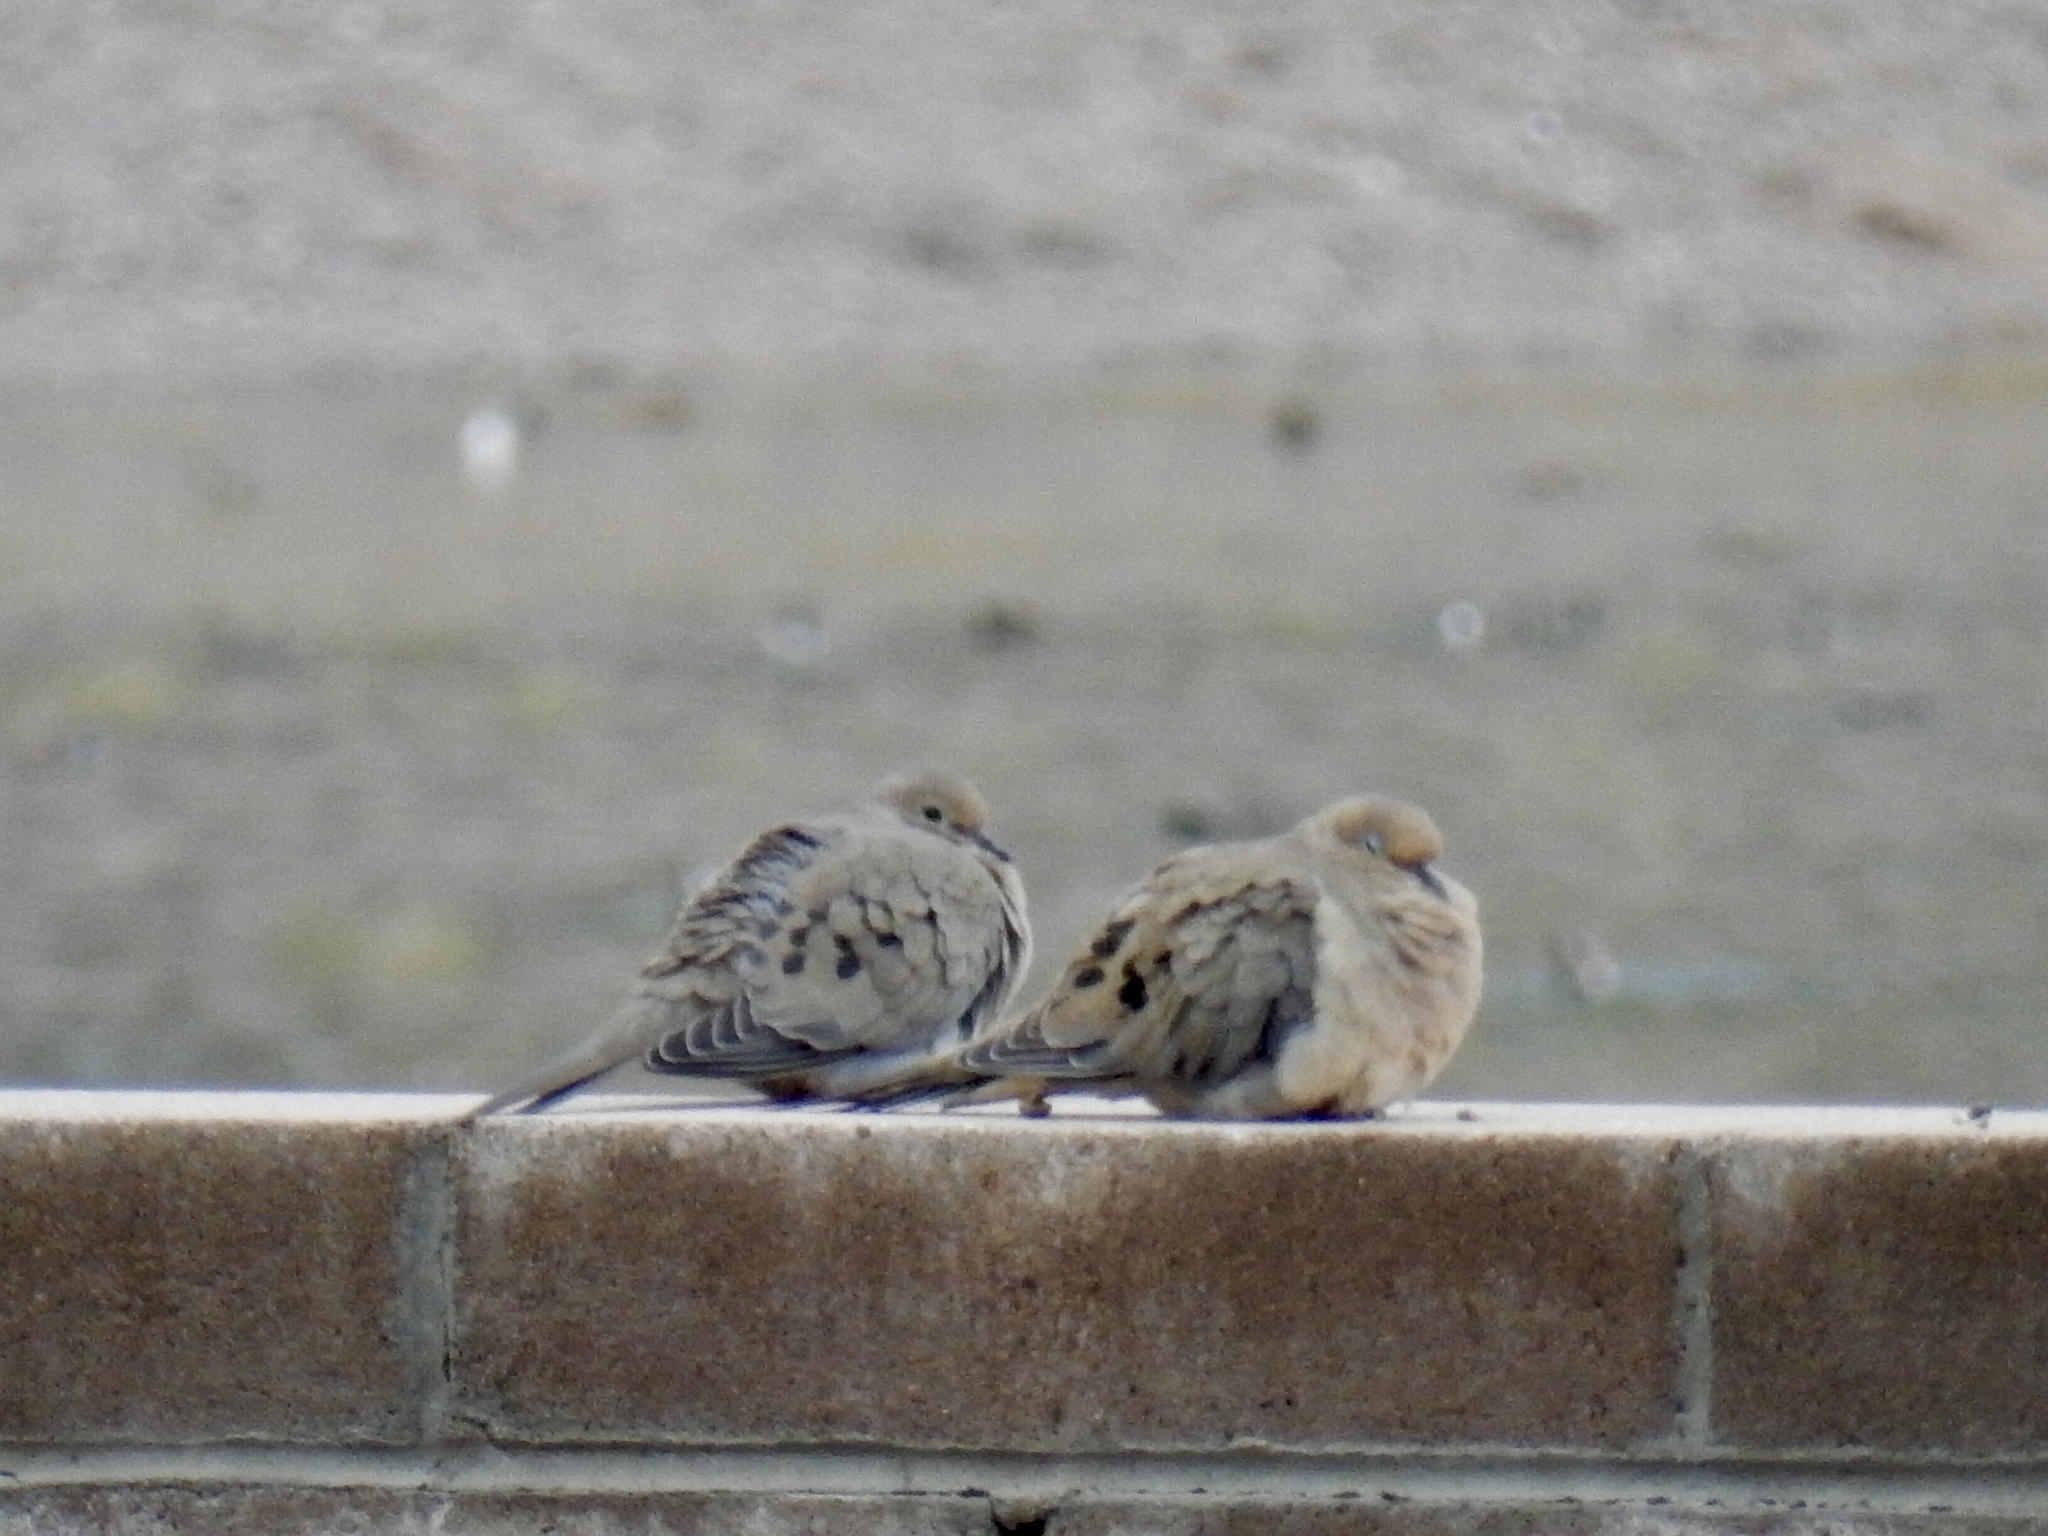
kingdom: Animalia
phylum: Chordata
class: Aves
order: Columbiformes
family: Columbidae
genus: Zenaida
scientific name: Zenaida macroura
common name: Mourning dove
